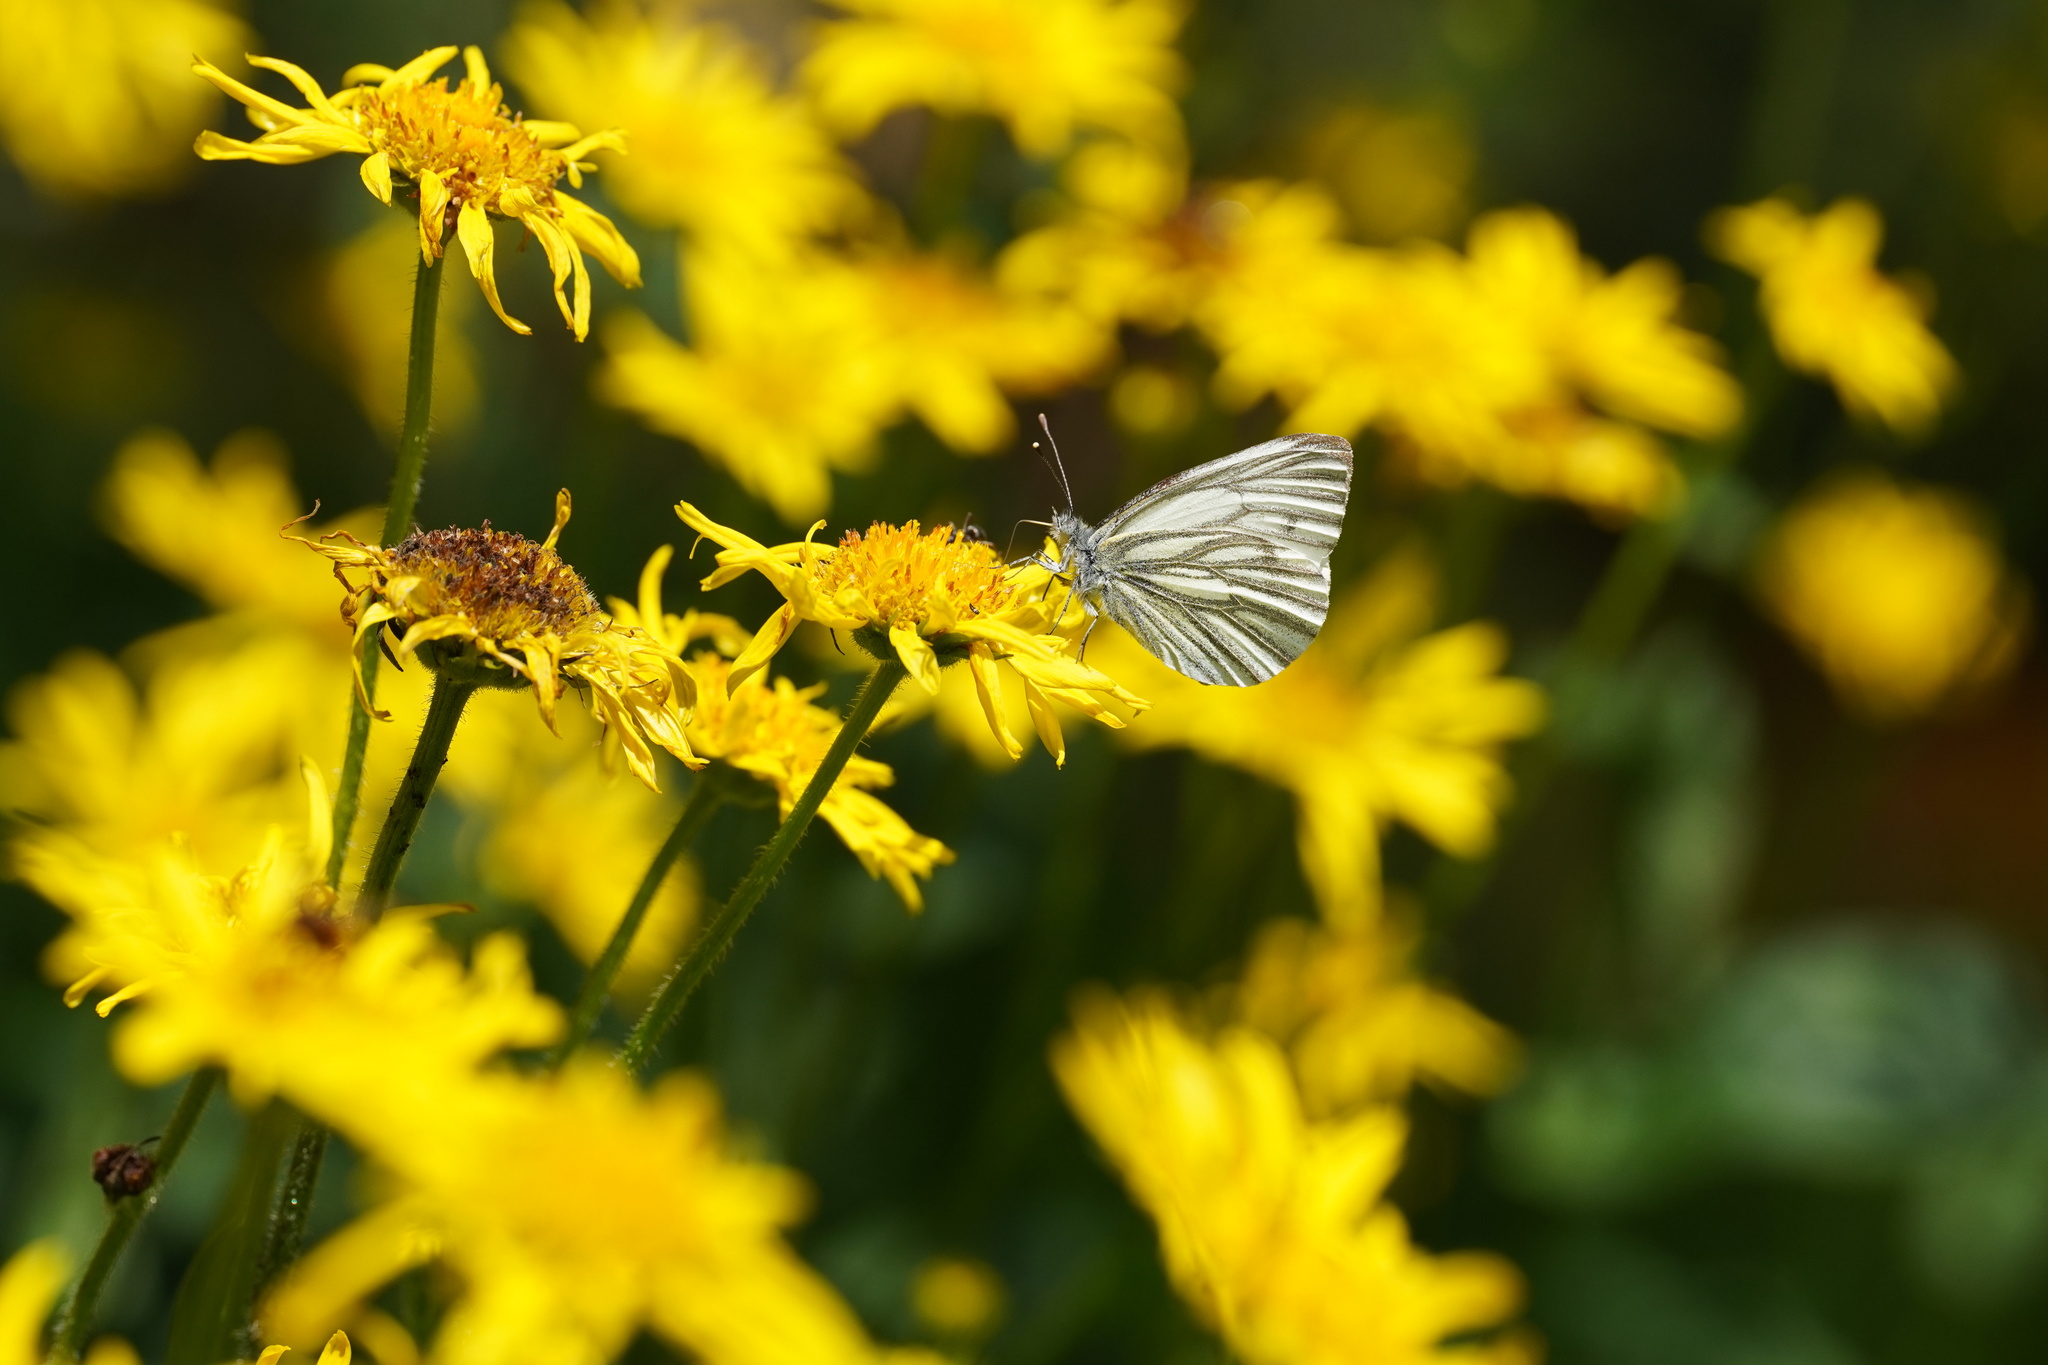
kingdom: Animalia
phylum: Arthropoda
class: Insecta
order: Lepidoptera
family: Pieridae
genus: Pieris
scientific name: Pieris napi
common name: Green-veined white
